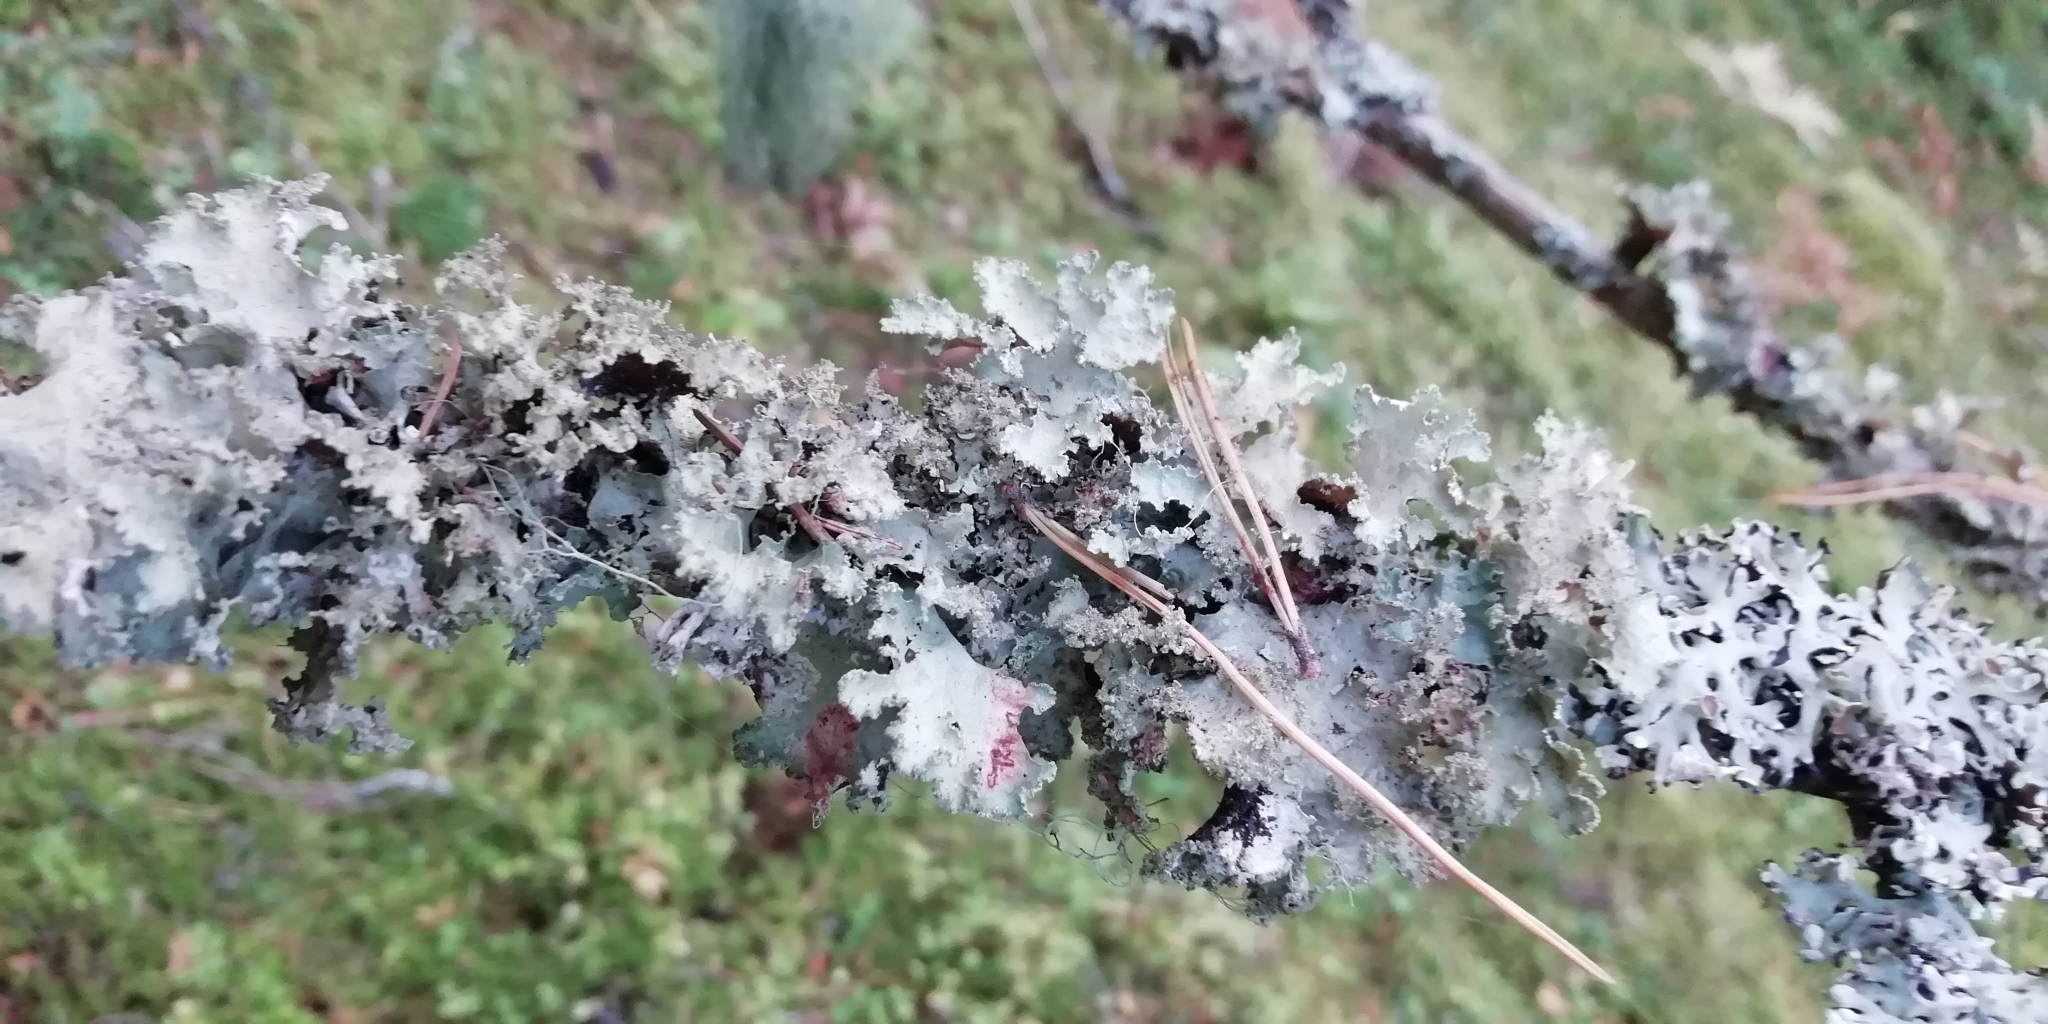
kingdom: Fungi
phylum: Ascomycota
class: Lecanoromycetes
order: Lecanorales
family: Parmeliaceae
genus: Platismatia
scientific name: Platismatia glauca
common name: Varied rag lichen
